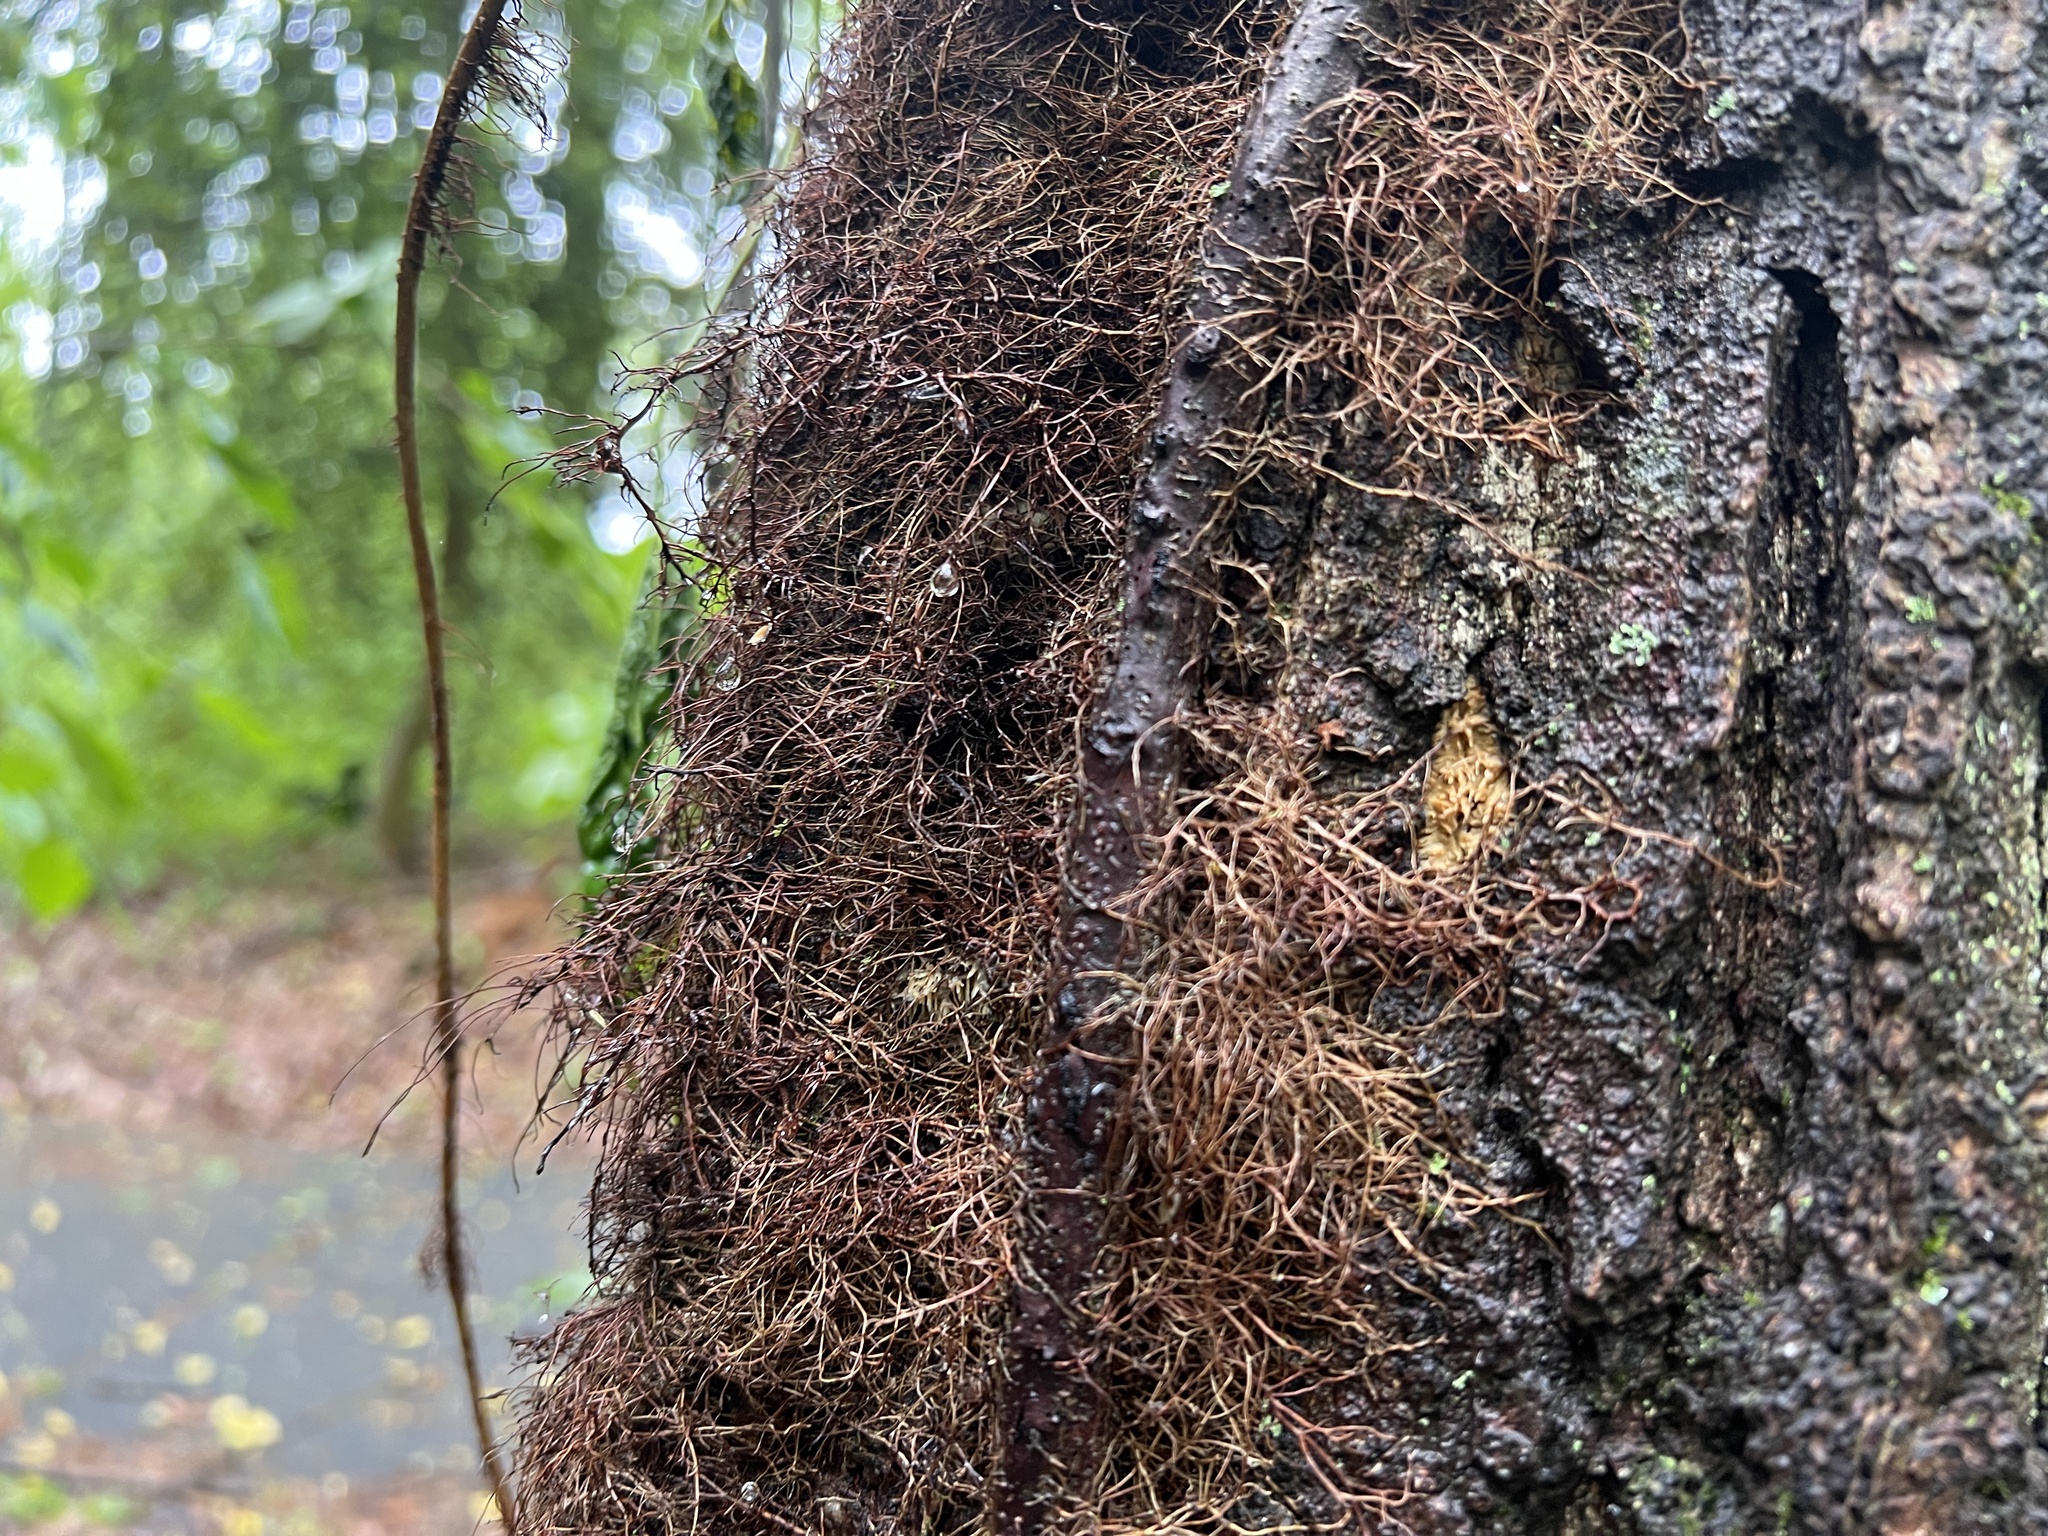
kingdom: Plantae
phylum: Tracheophyta
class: Magnoliopsida
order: Sapindales
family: Anacardiaceae
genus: Toxicodendron
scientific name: Toxicodendron radicans
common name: Poison ivy
